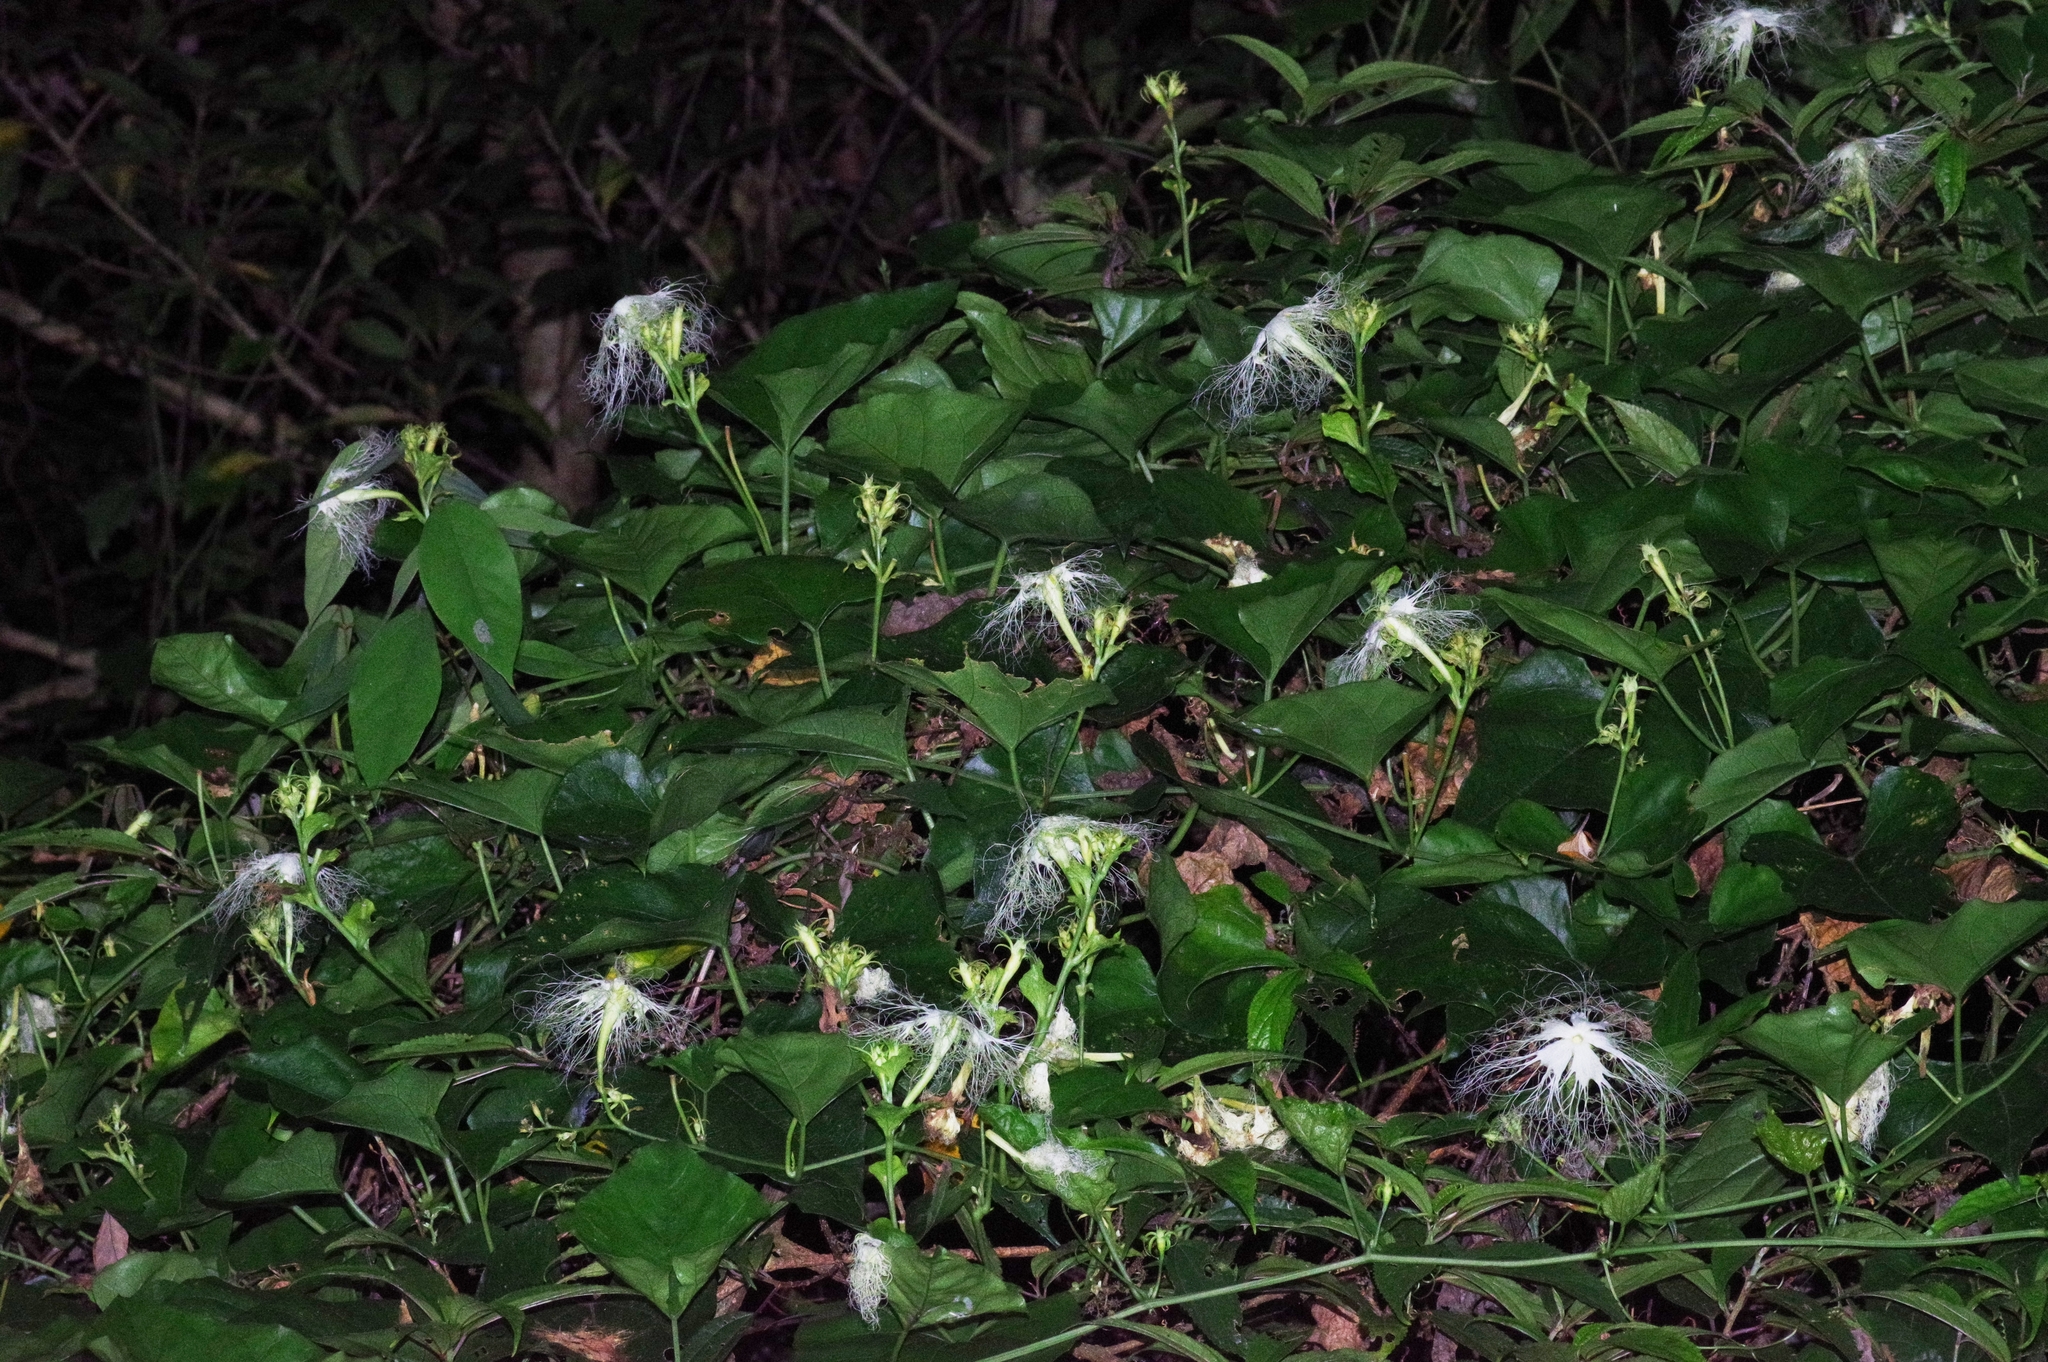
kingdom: Plantae
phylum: Tracheophyta
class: Magnoliopsida
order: Cucurbitales
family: Cucurbitaceae
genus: Trichosanthes
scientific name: Trichosanthes miyagii
